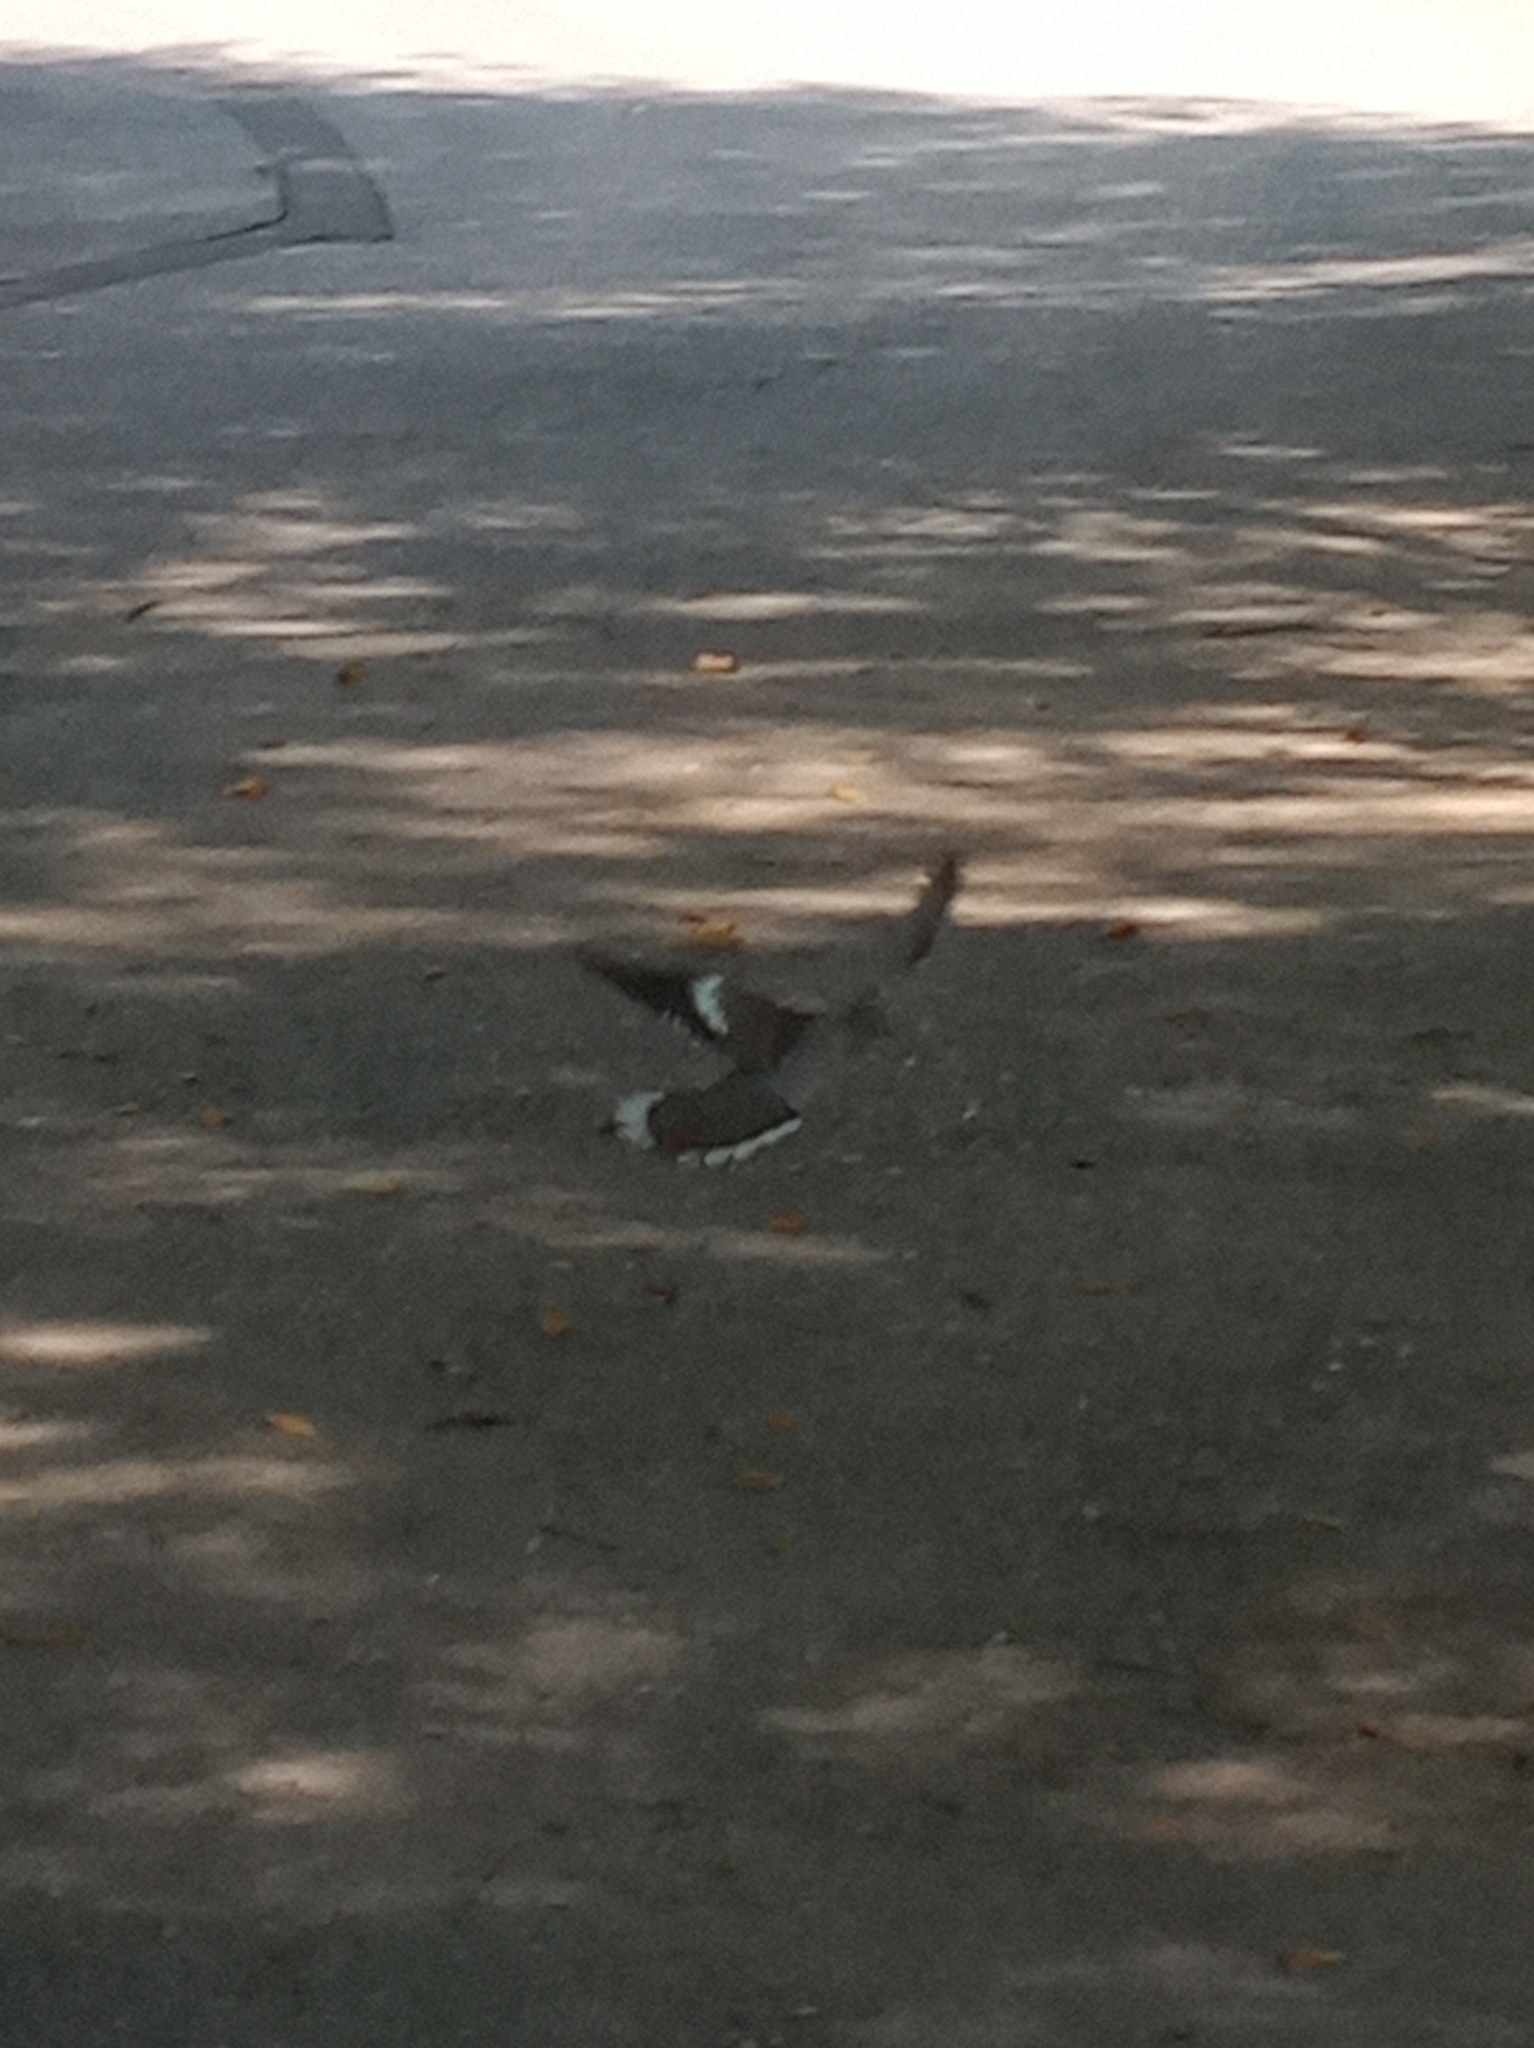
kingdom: Animalia
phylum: Chordata
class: Aves
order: Columbiformes
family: Columbidae
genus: Zenaida
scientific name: Zenaida asiatica
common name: White-winged dove
